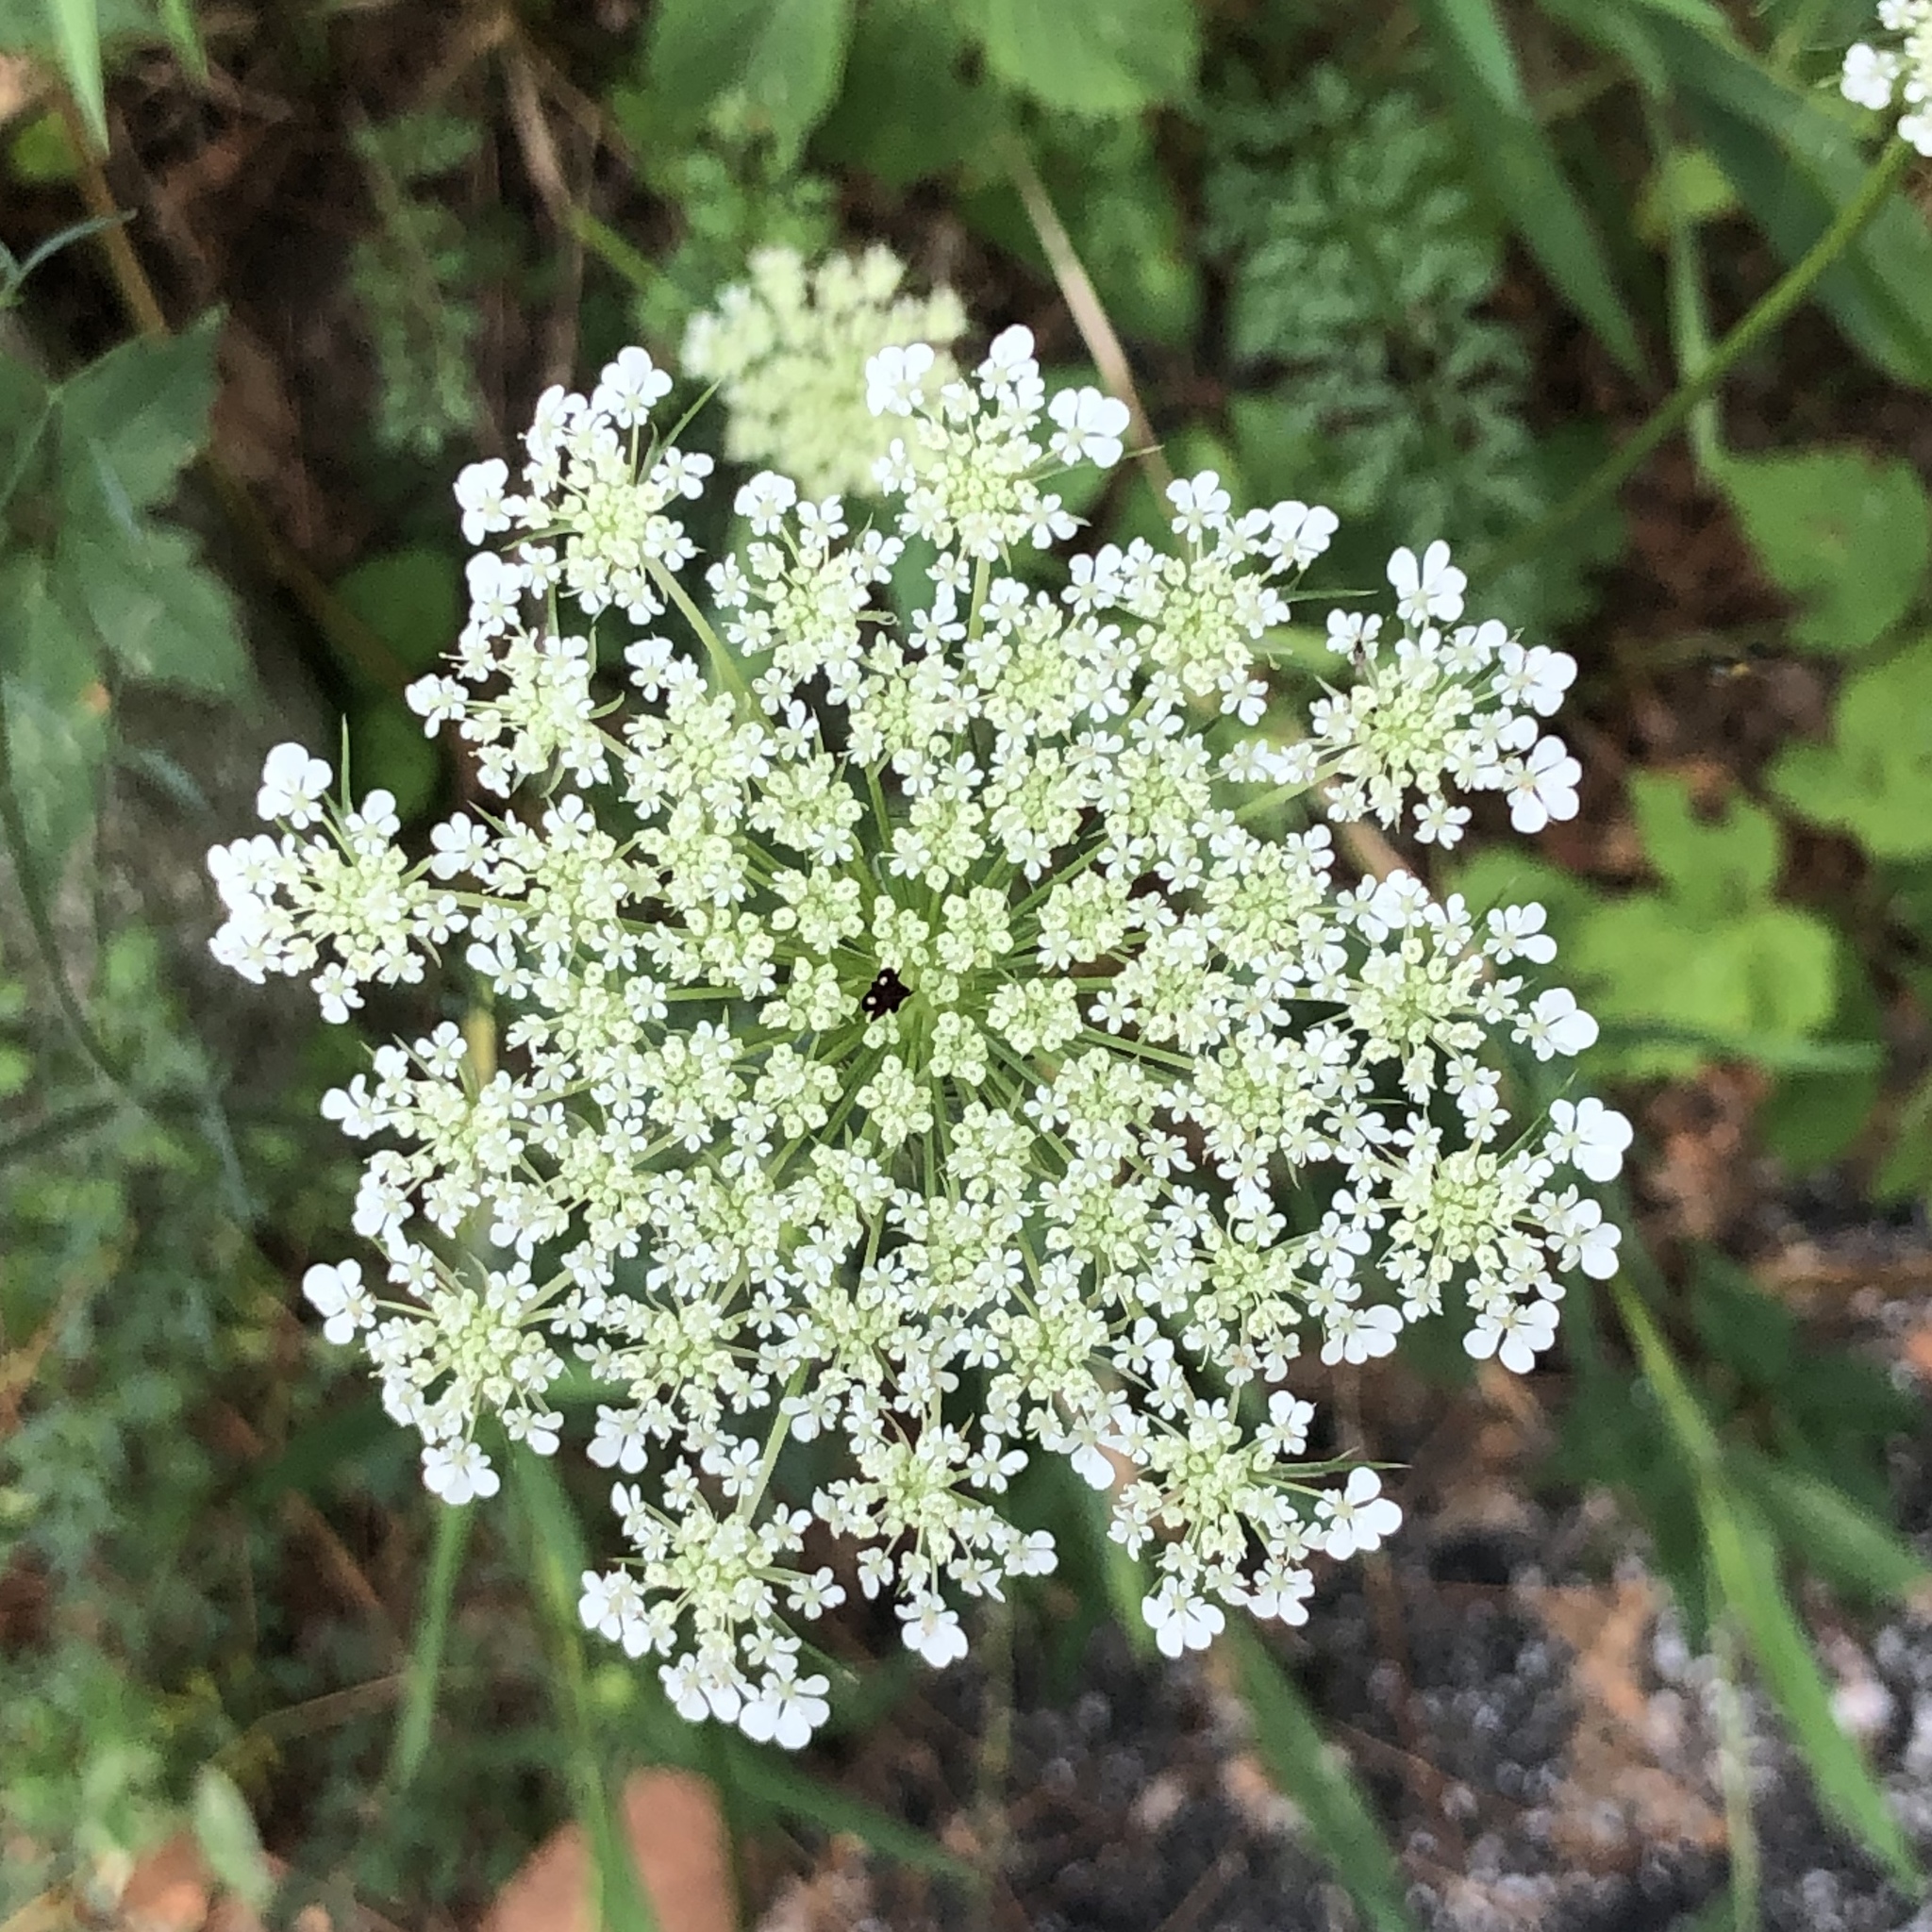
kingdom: Plantae
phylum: Tracheophyta
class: Magnoliopsida
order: Apiales
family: Apiaceae
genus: Daucus
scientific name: Daucus carota
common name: Wild carrot
